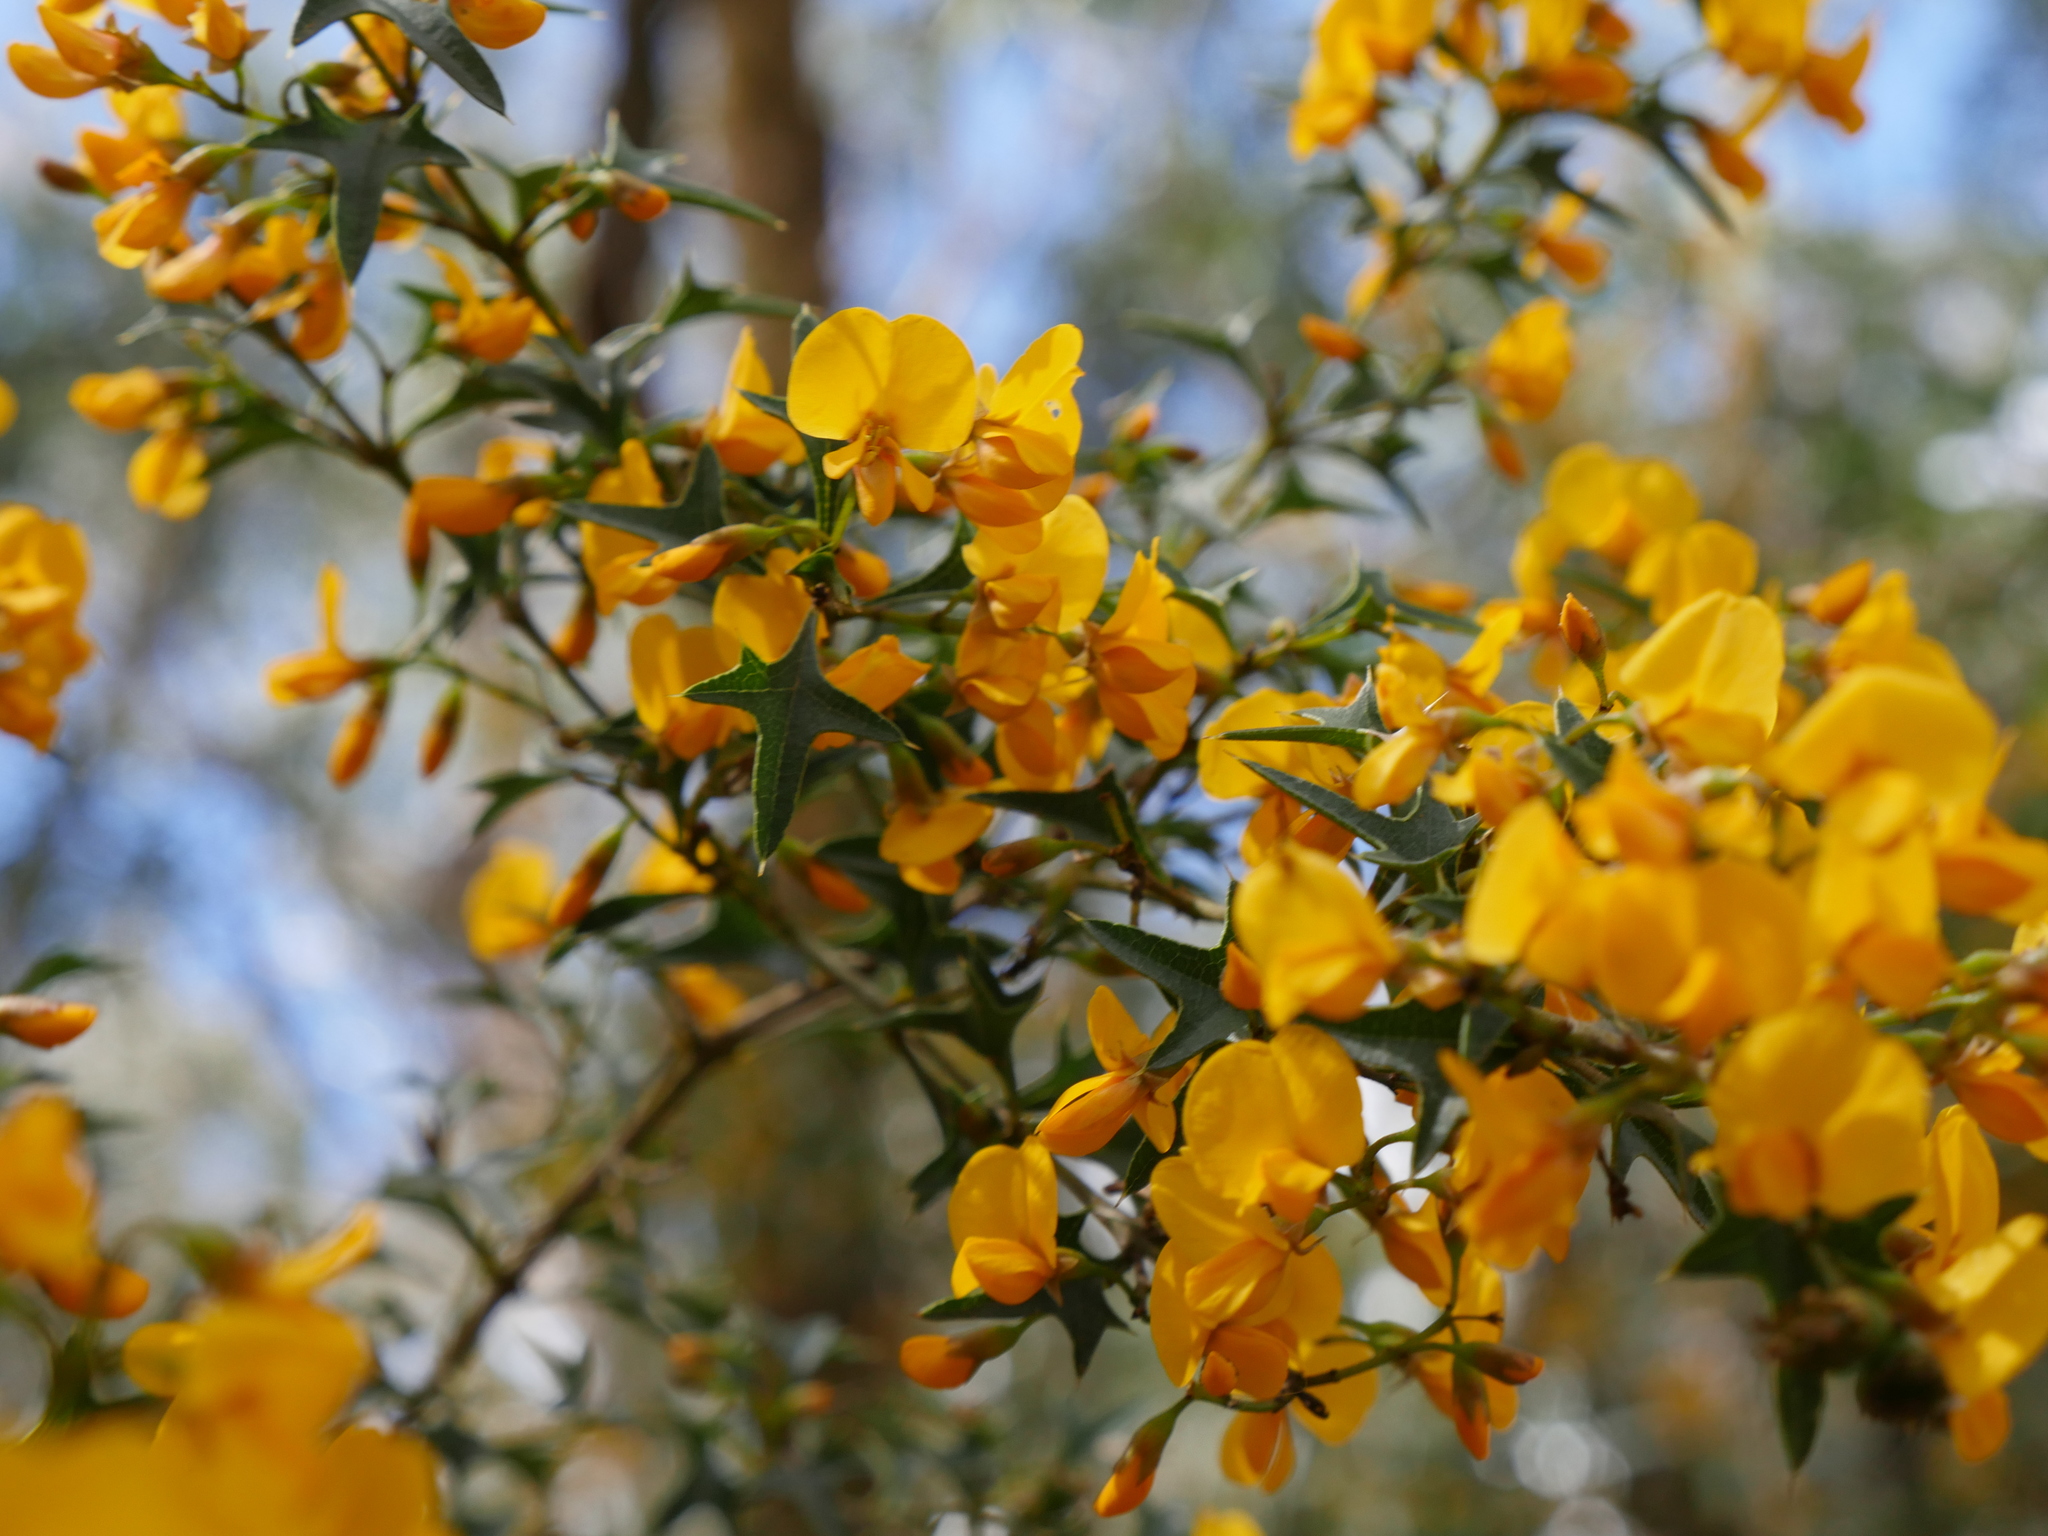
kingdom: Plantae
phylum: Tracheophyta
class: Magnoliopsida
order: Fabales
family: Fabaceae
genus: Podolobium
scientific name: Podolobium ilicifolium
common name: Native holly
